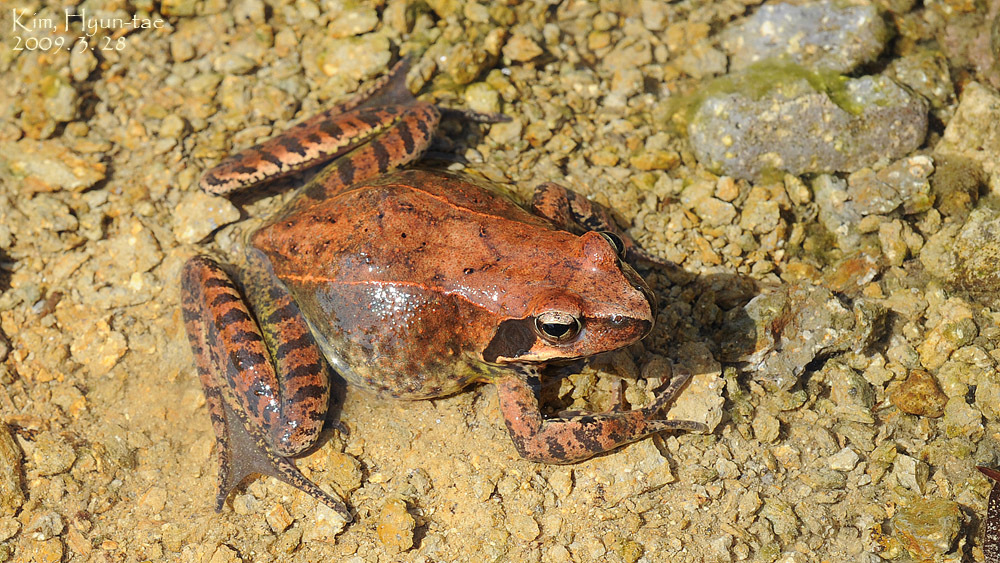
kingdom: Animalia
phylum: Chordata
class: Amphibia
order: Anura
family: Ranidae
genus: Rana
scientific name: Rana uenoi
